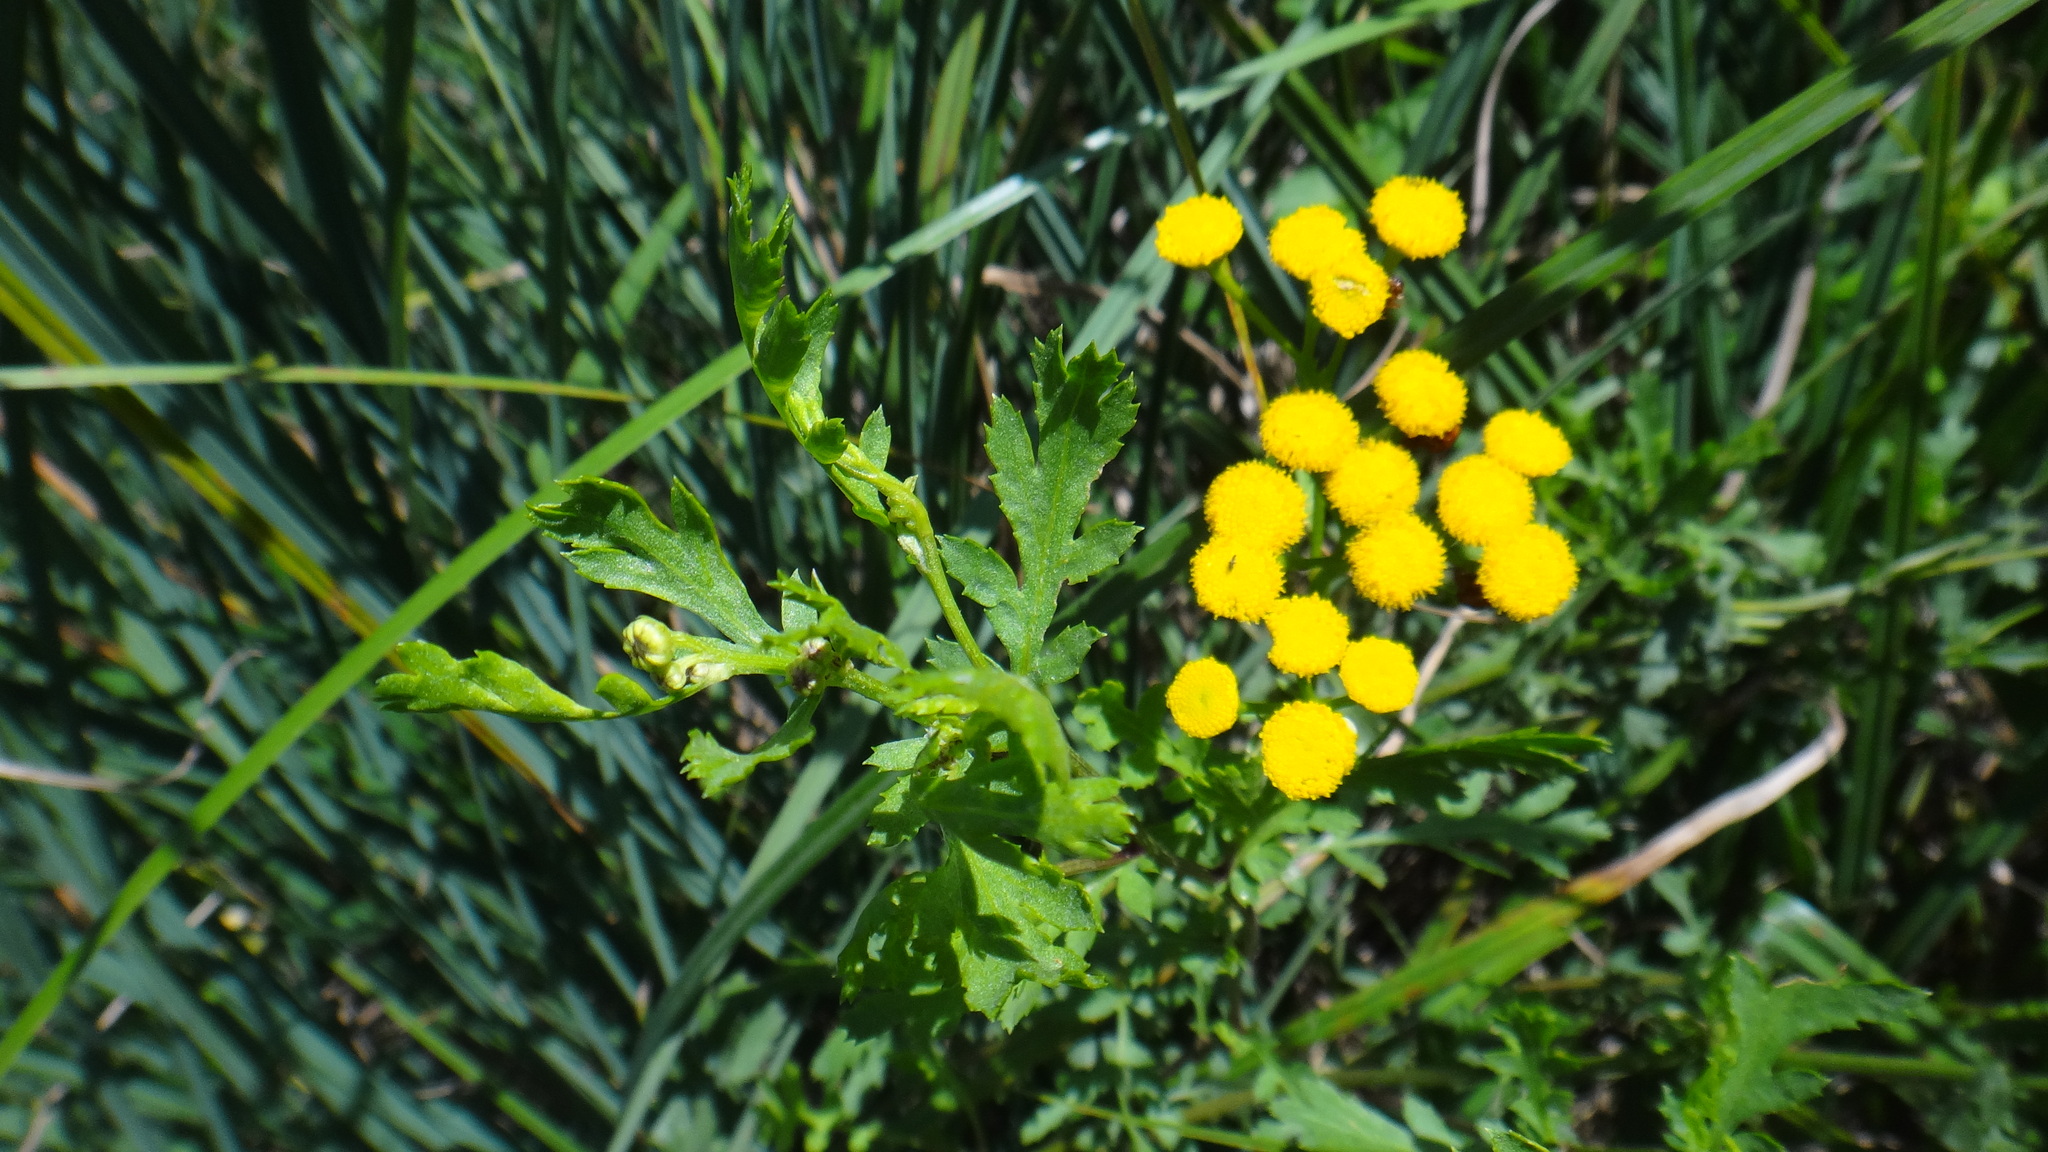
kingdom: Plantae
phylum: Tracheophyta
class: Magnoliopsida
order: Asterales
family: Asteraceae
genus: Tanacetum
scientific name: Tanacetum vulgare
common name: Common tansy
